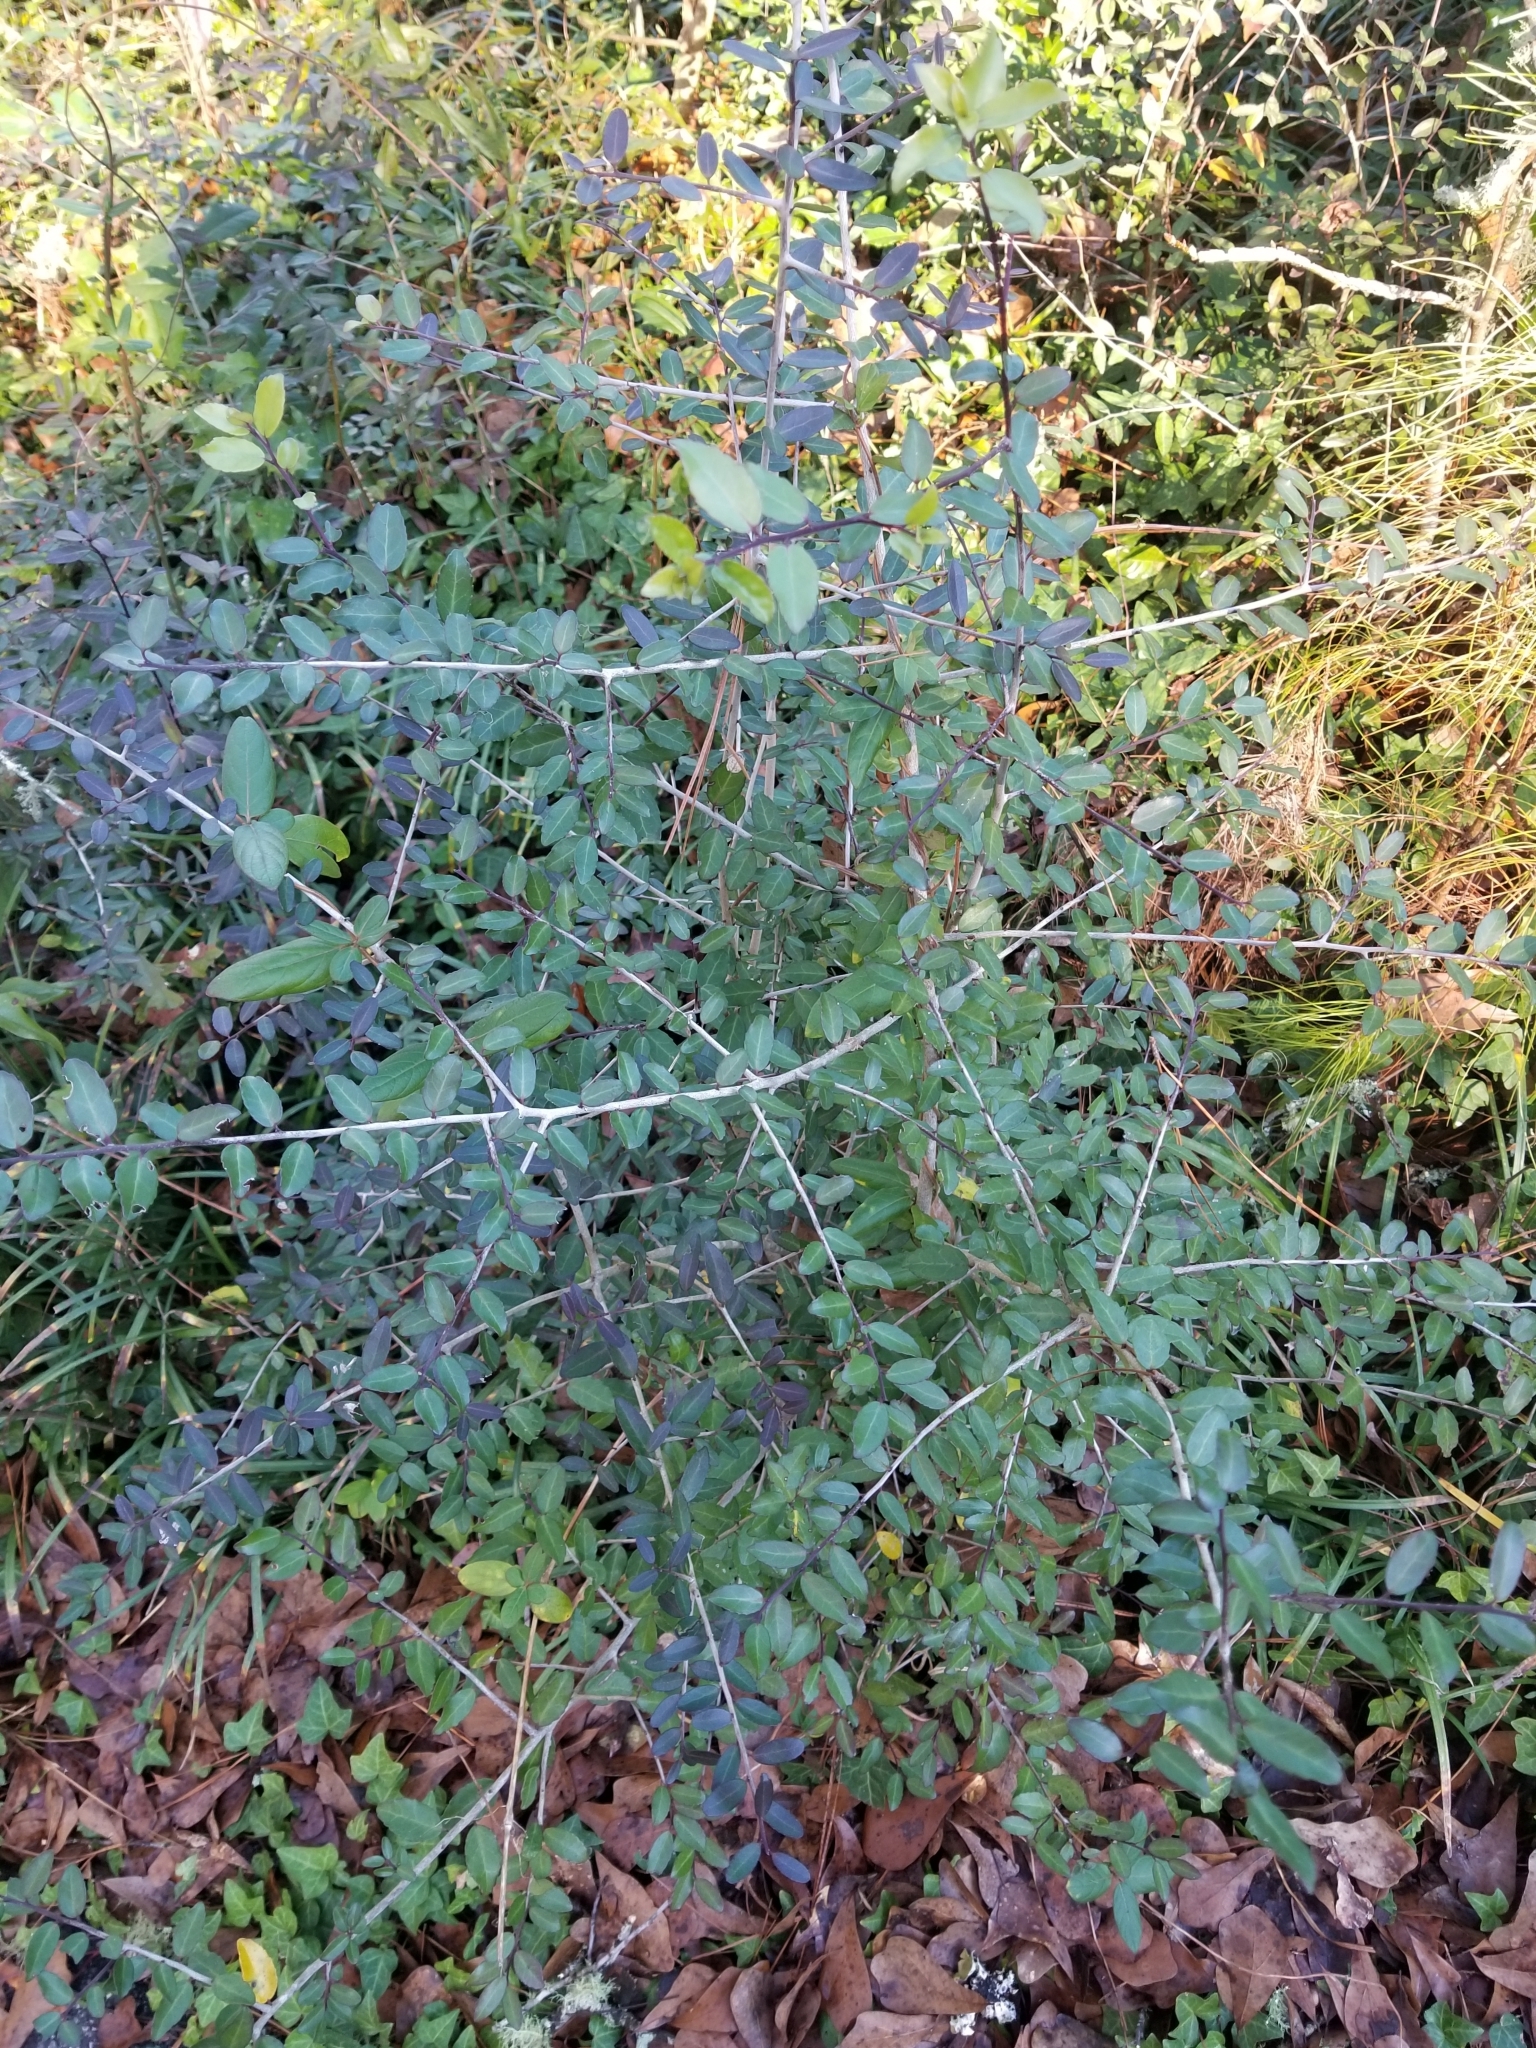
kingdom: Plantae
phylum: Tracheophyta
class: Magnoliopsida
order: Aquifoliales
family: Aquifoliaceae
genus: Ilex
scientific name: Ilex vomitoria
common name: Yaupon holly
